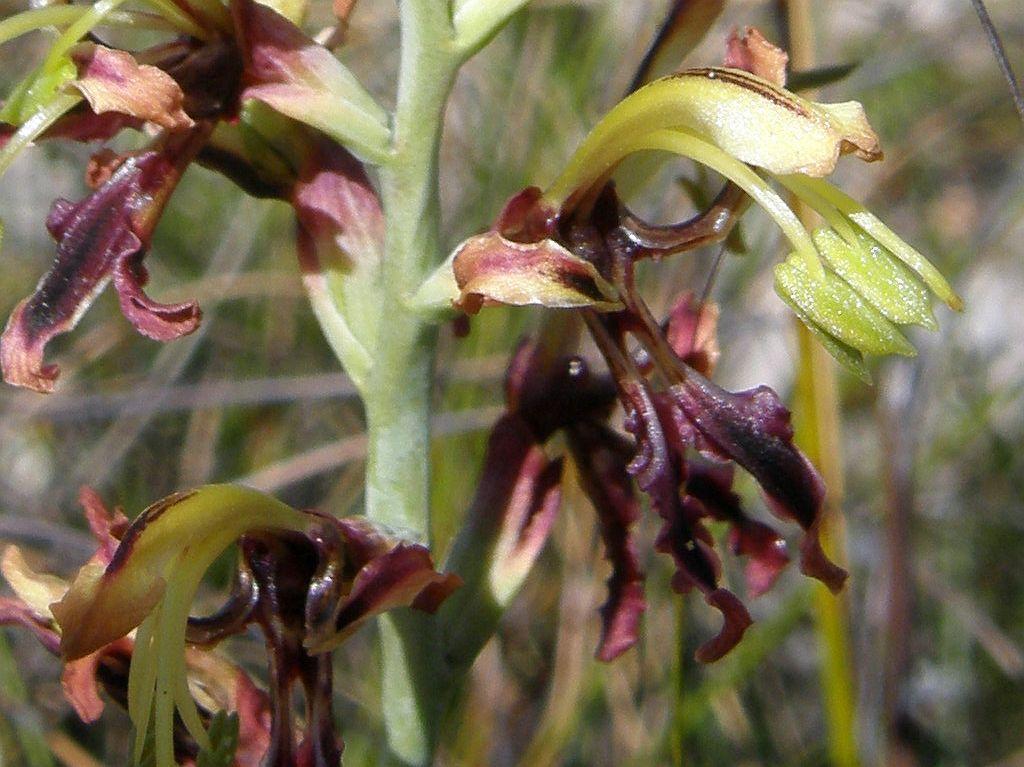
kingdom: Plantae
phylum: Tracheophyta
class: Liliopsida
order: Asparagales
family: Iridaceae
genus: Tritoniopsis
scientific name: Tritoniopsis parviflora
